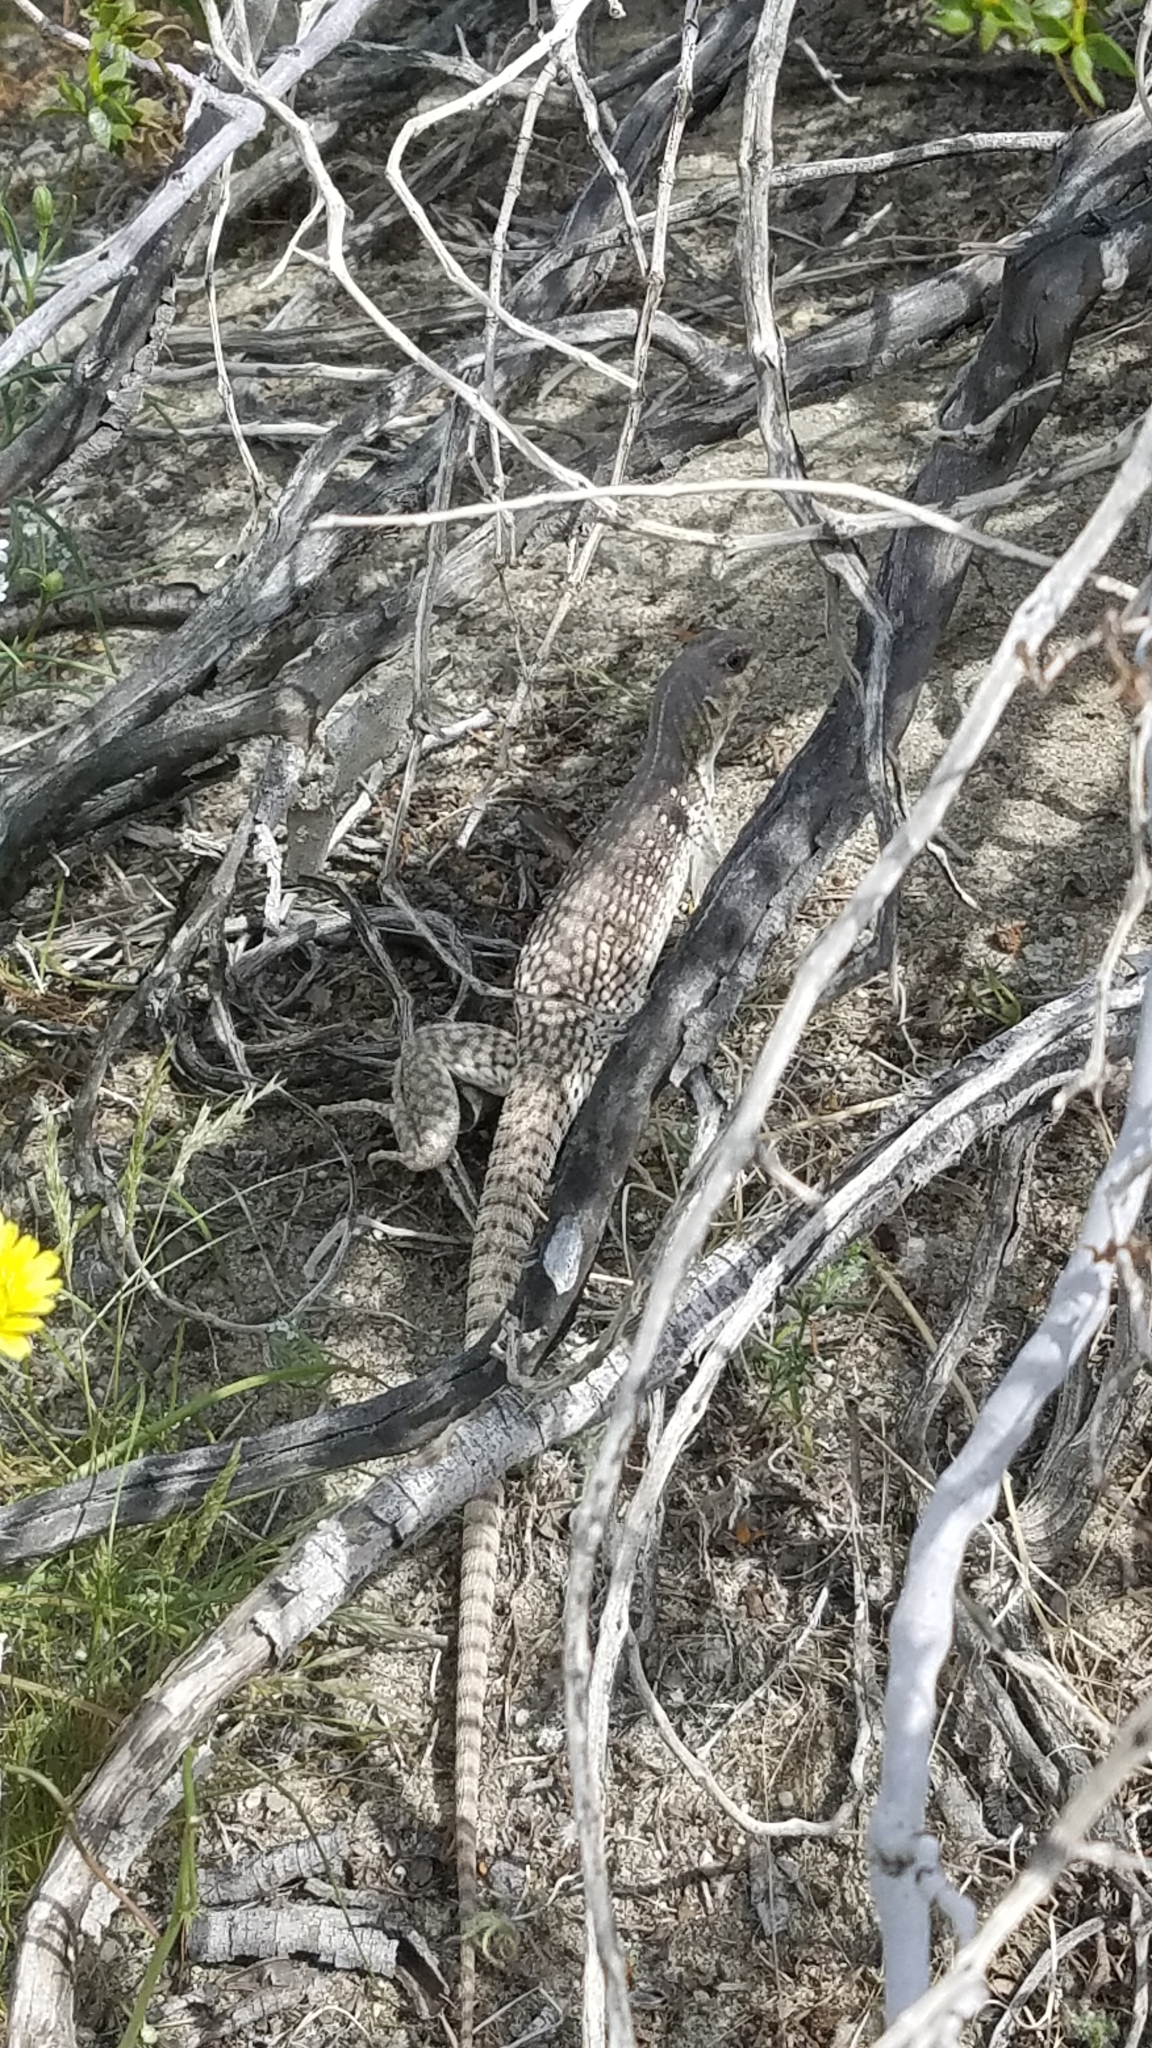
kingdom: Animalia
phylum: Chordata
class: Squamata
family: Iguanidae
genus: Dipsosaurus
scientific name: Dipsosaurus dorsalis
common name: Desert iguana
